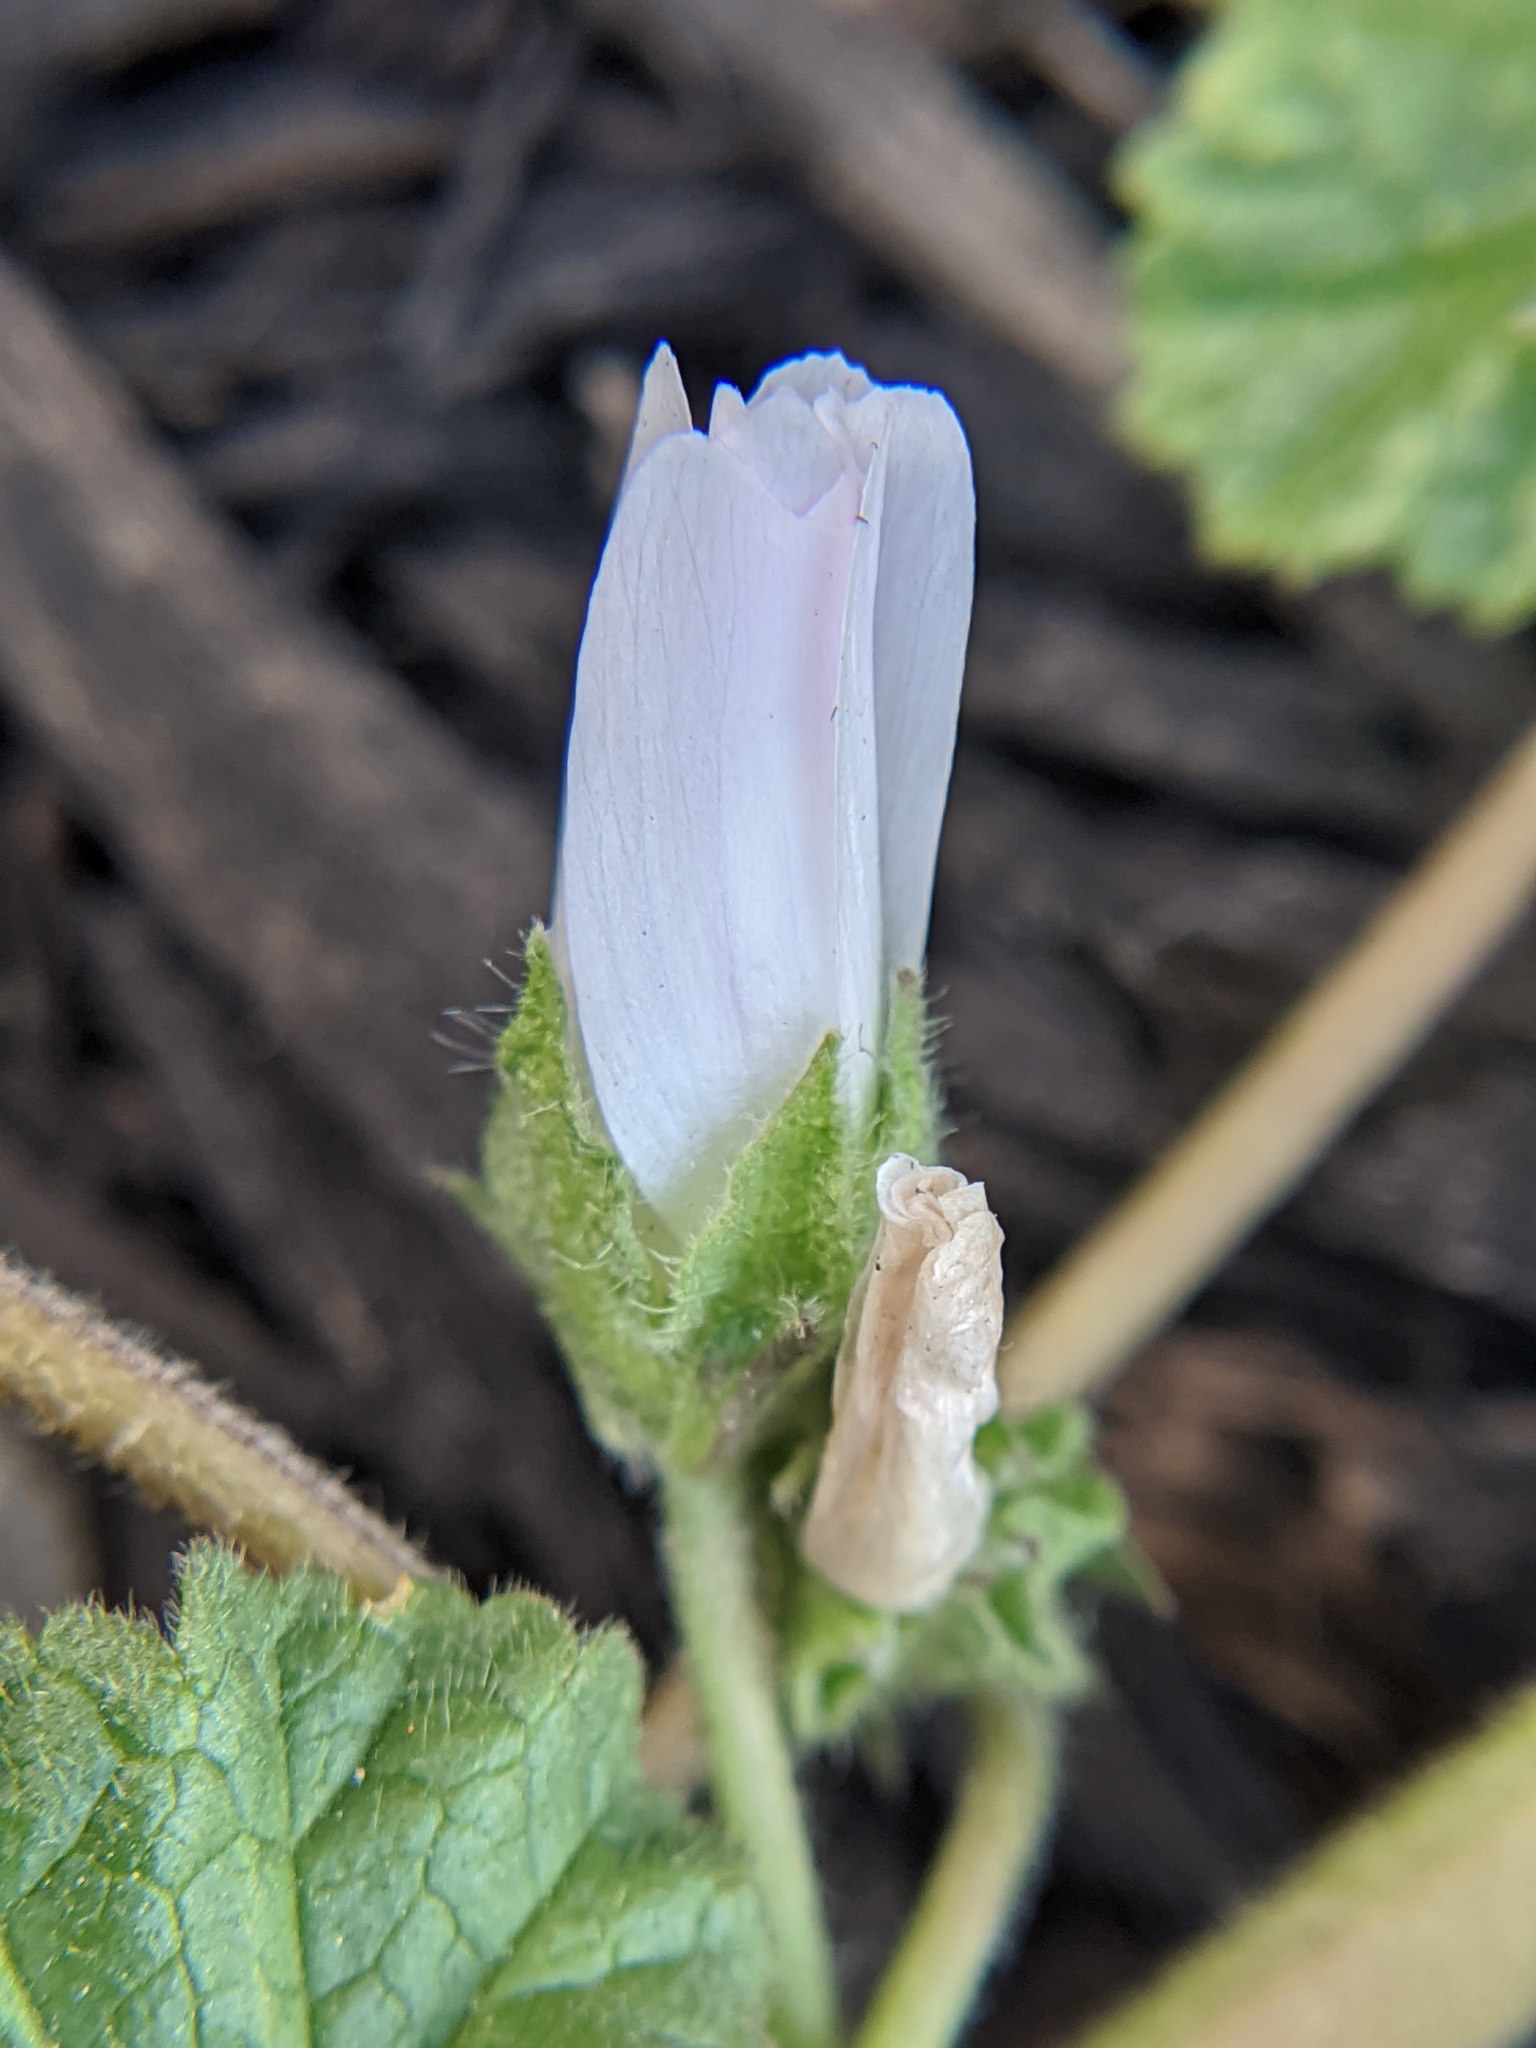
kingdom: Plantae
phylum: Tracheophyta
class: Magnoliopsida
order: Malvales
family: Malvaceae
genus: Malva
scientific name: Malva neglecta
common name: Common mallow
